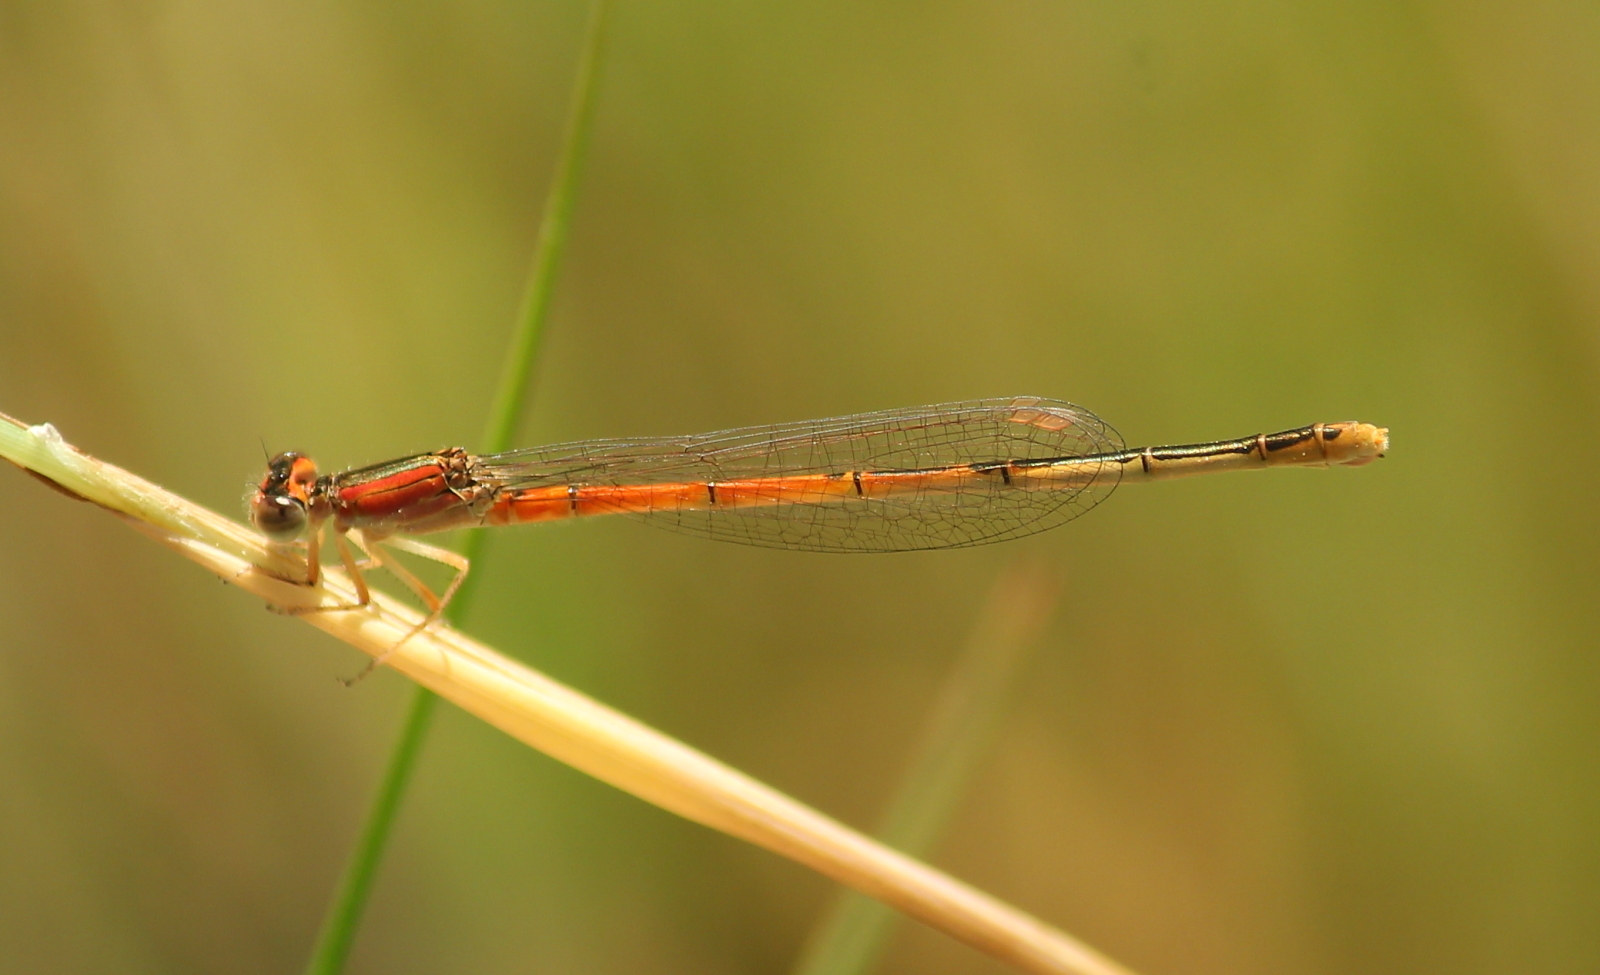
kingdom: Animalia
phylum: Arthropoda
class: Insecta
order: Odonata
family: Coenagrionidae
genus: Ischnura
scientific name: Ischnura hastata
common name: Citrine forktail
